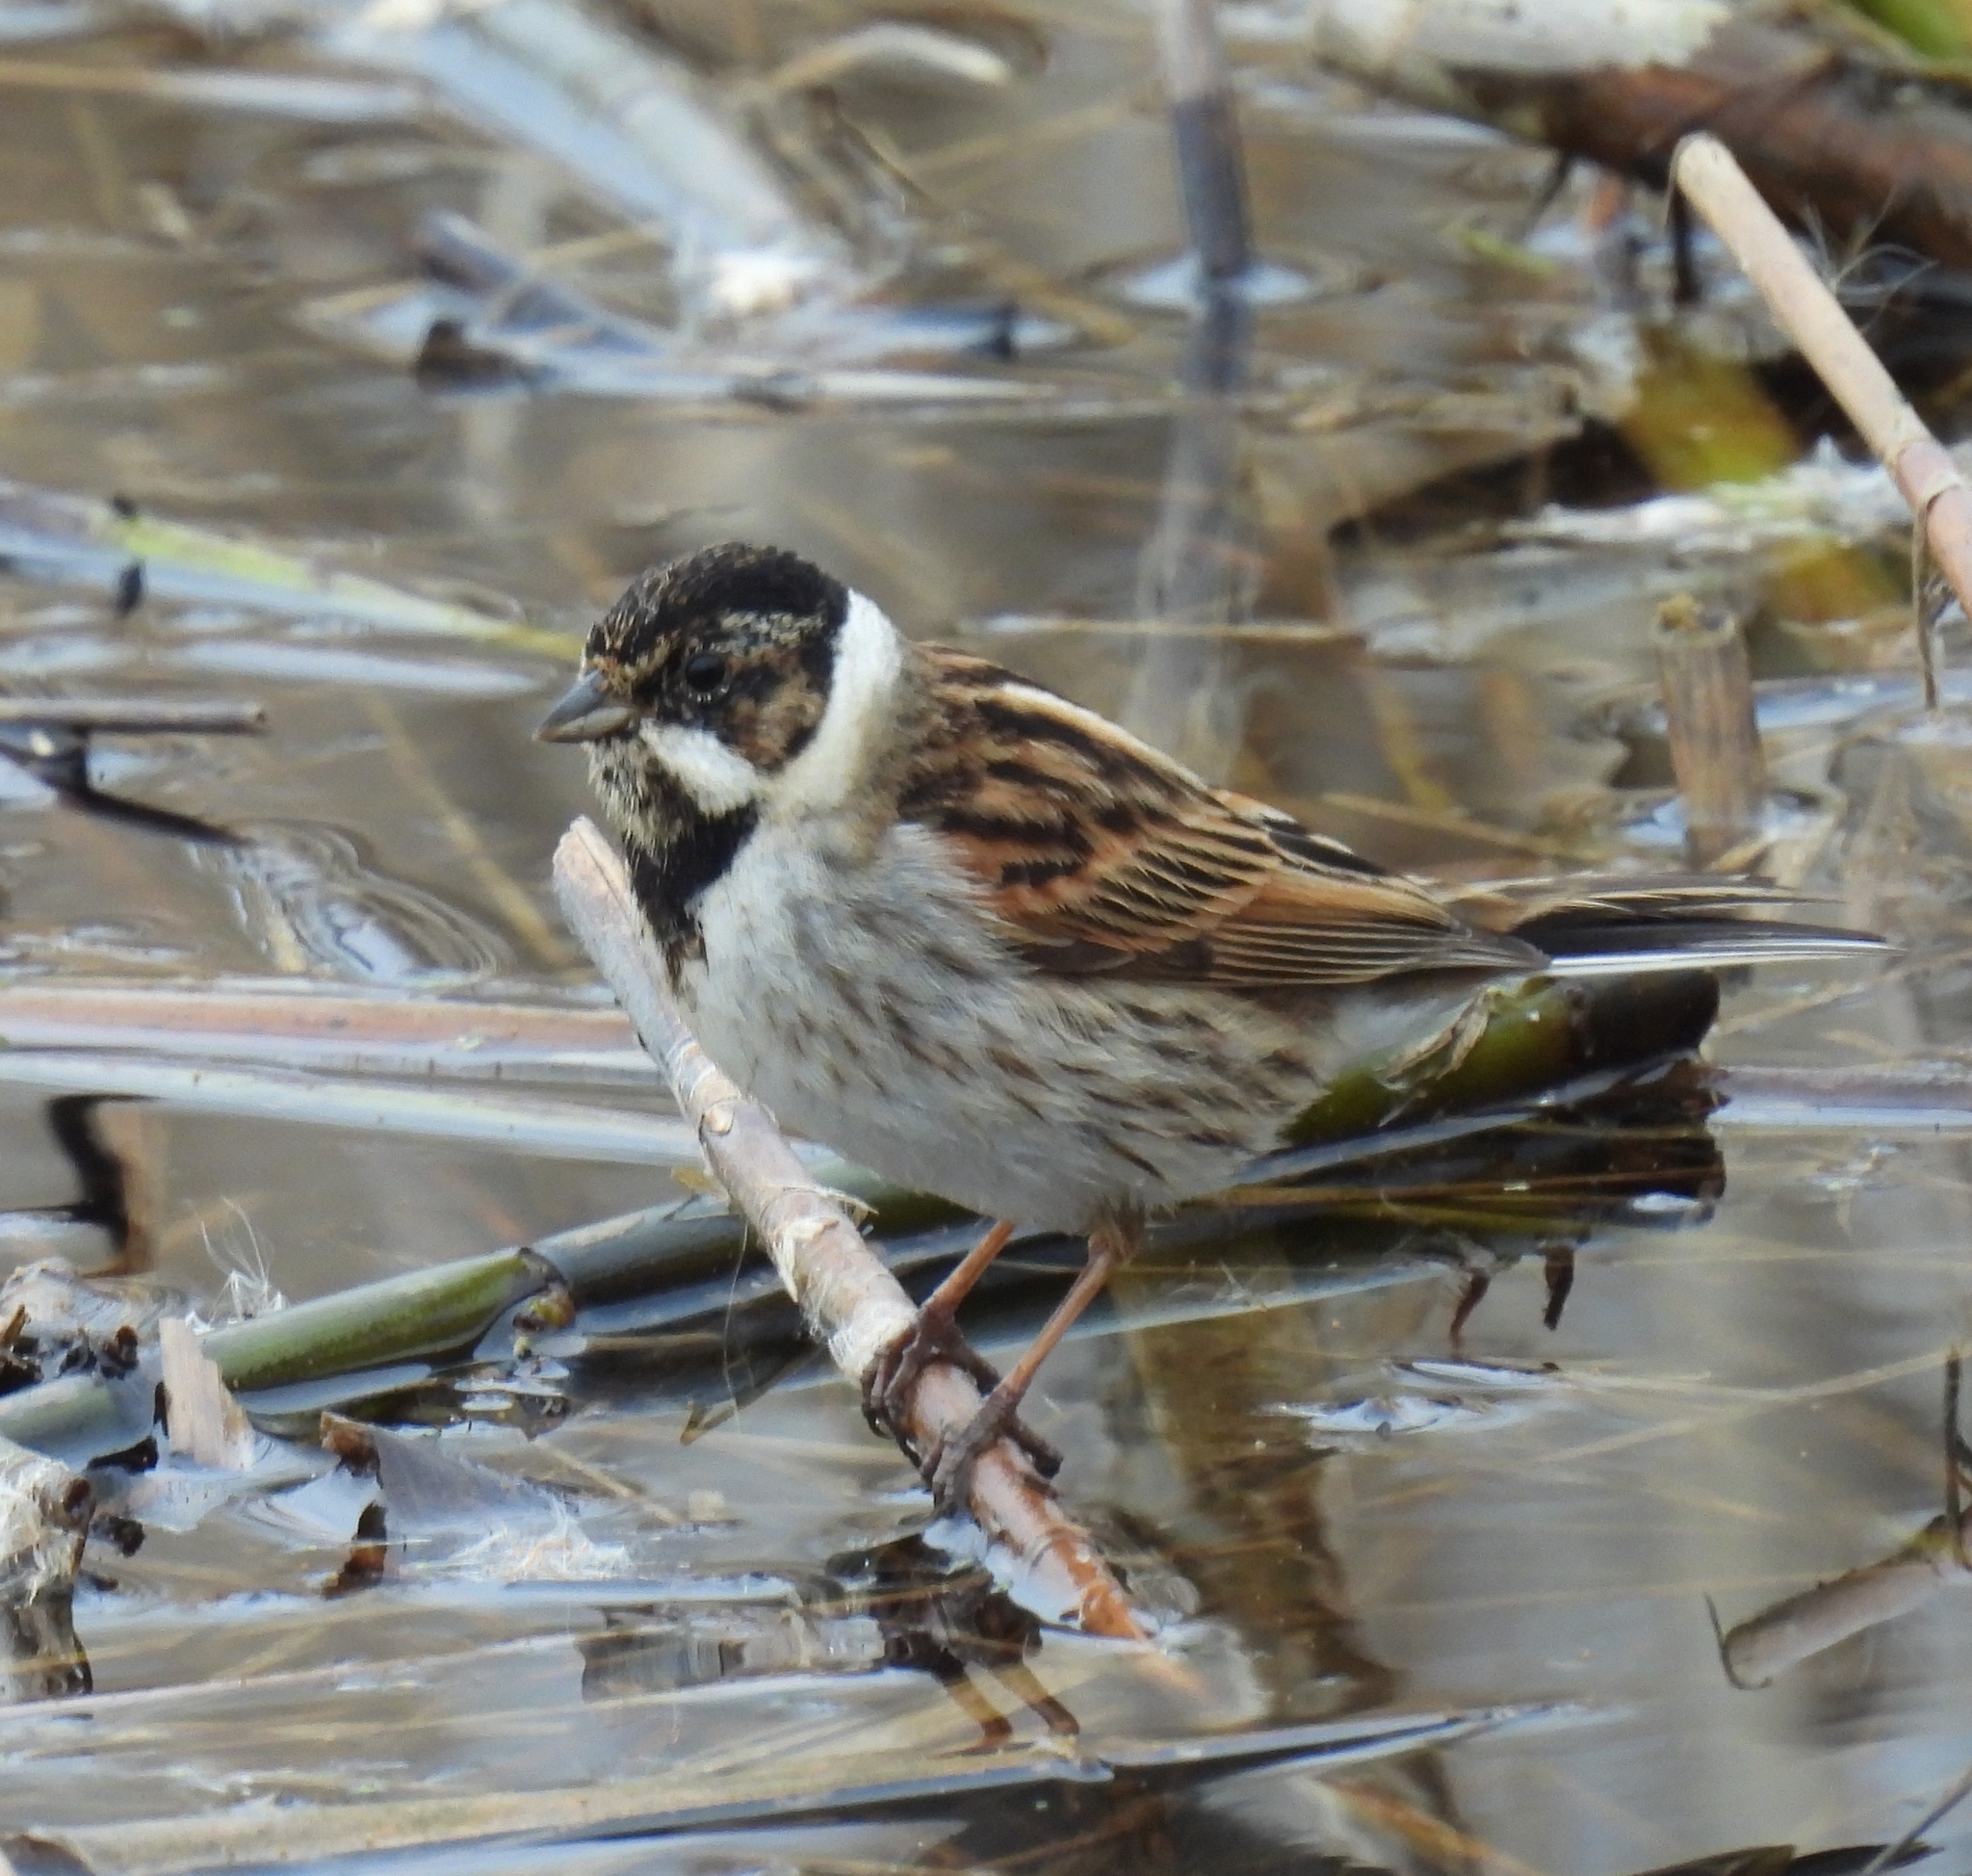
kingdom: Animalia
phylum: Chordata
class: Aves
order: Passeriformes
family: Emberizidae
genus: Emberiza
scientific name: Emberiza schoeniclus
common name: Reed bunting
